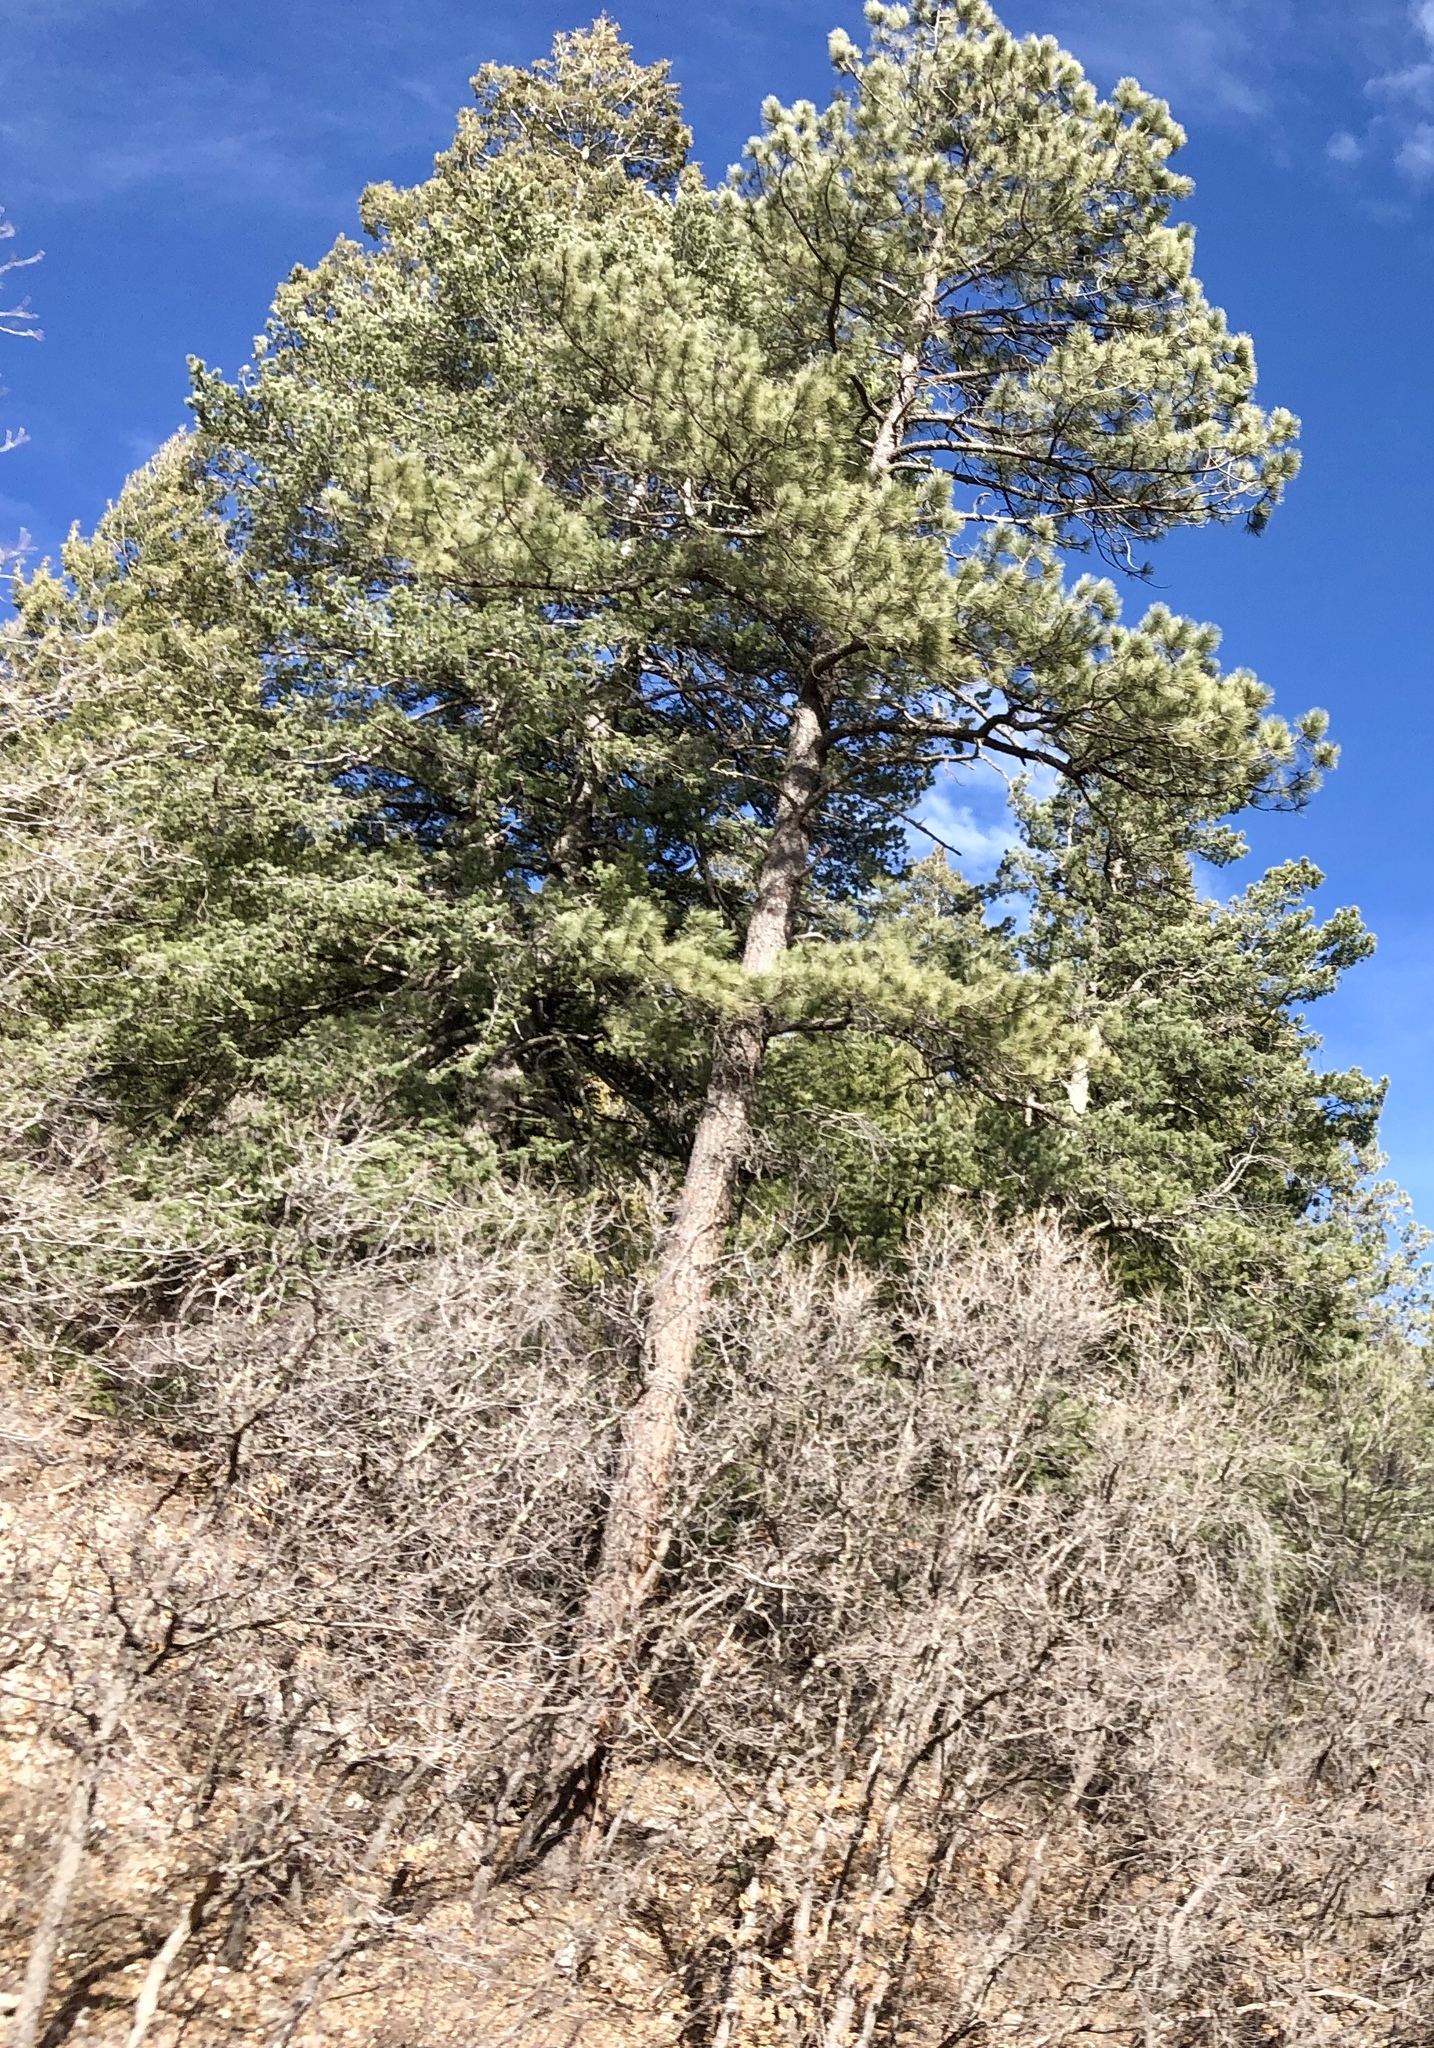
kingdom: Plantae
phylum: Tracheophyta
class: Pinopsida
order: Pinales
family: Pinaceae
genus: Pinus
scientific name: Pinus ponderosa
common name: Western yellow-pine
